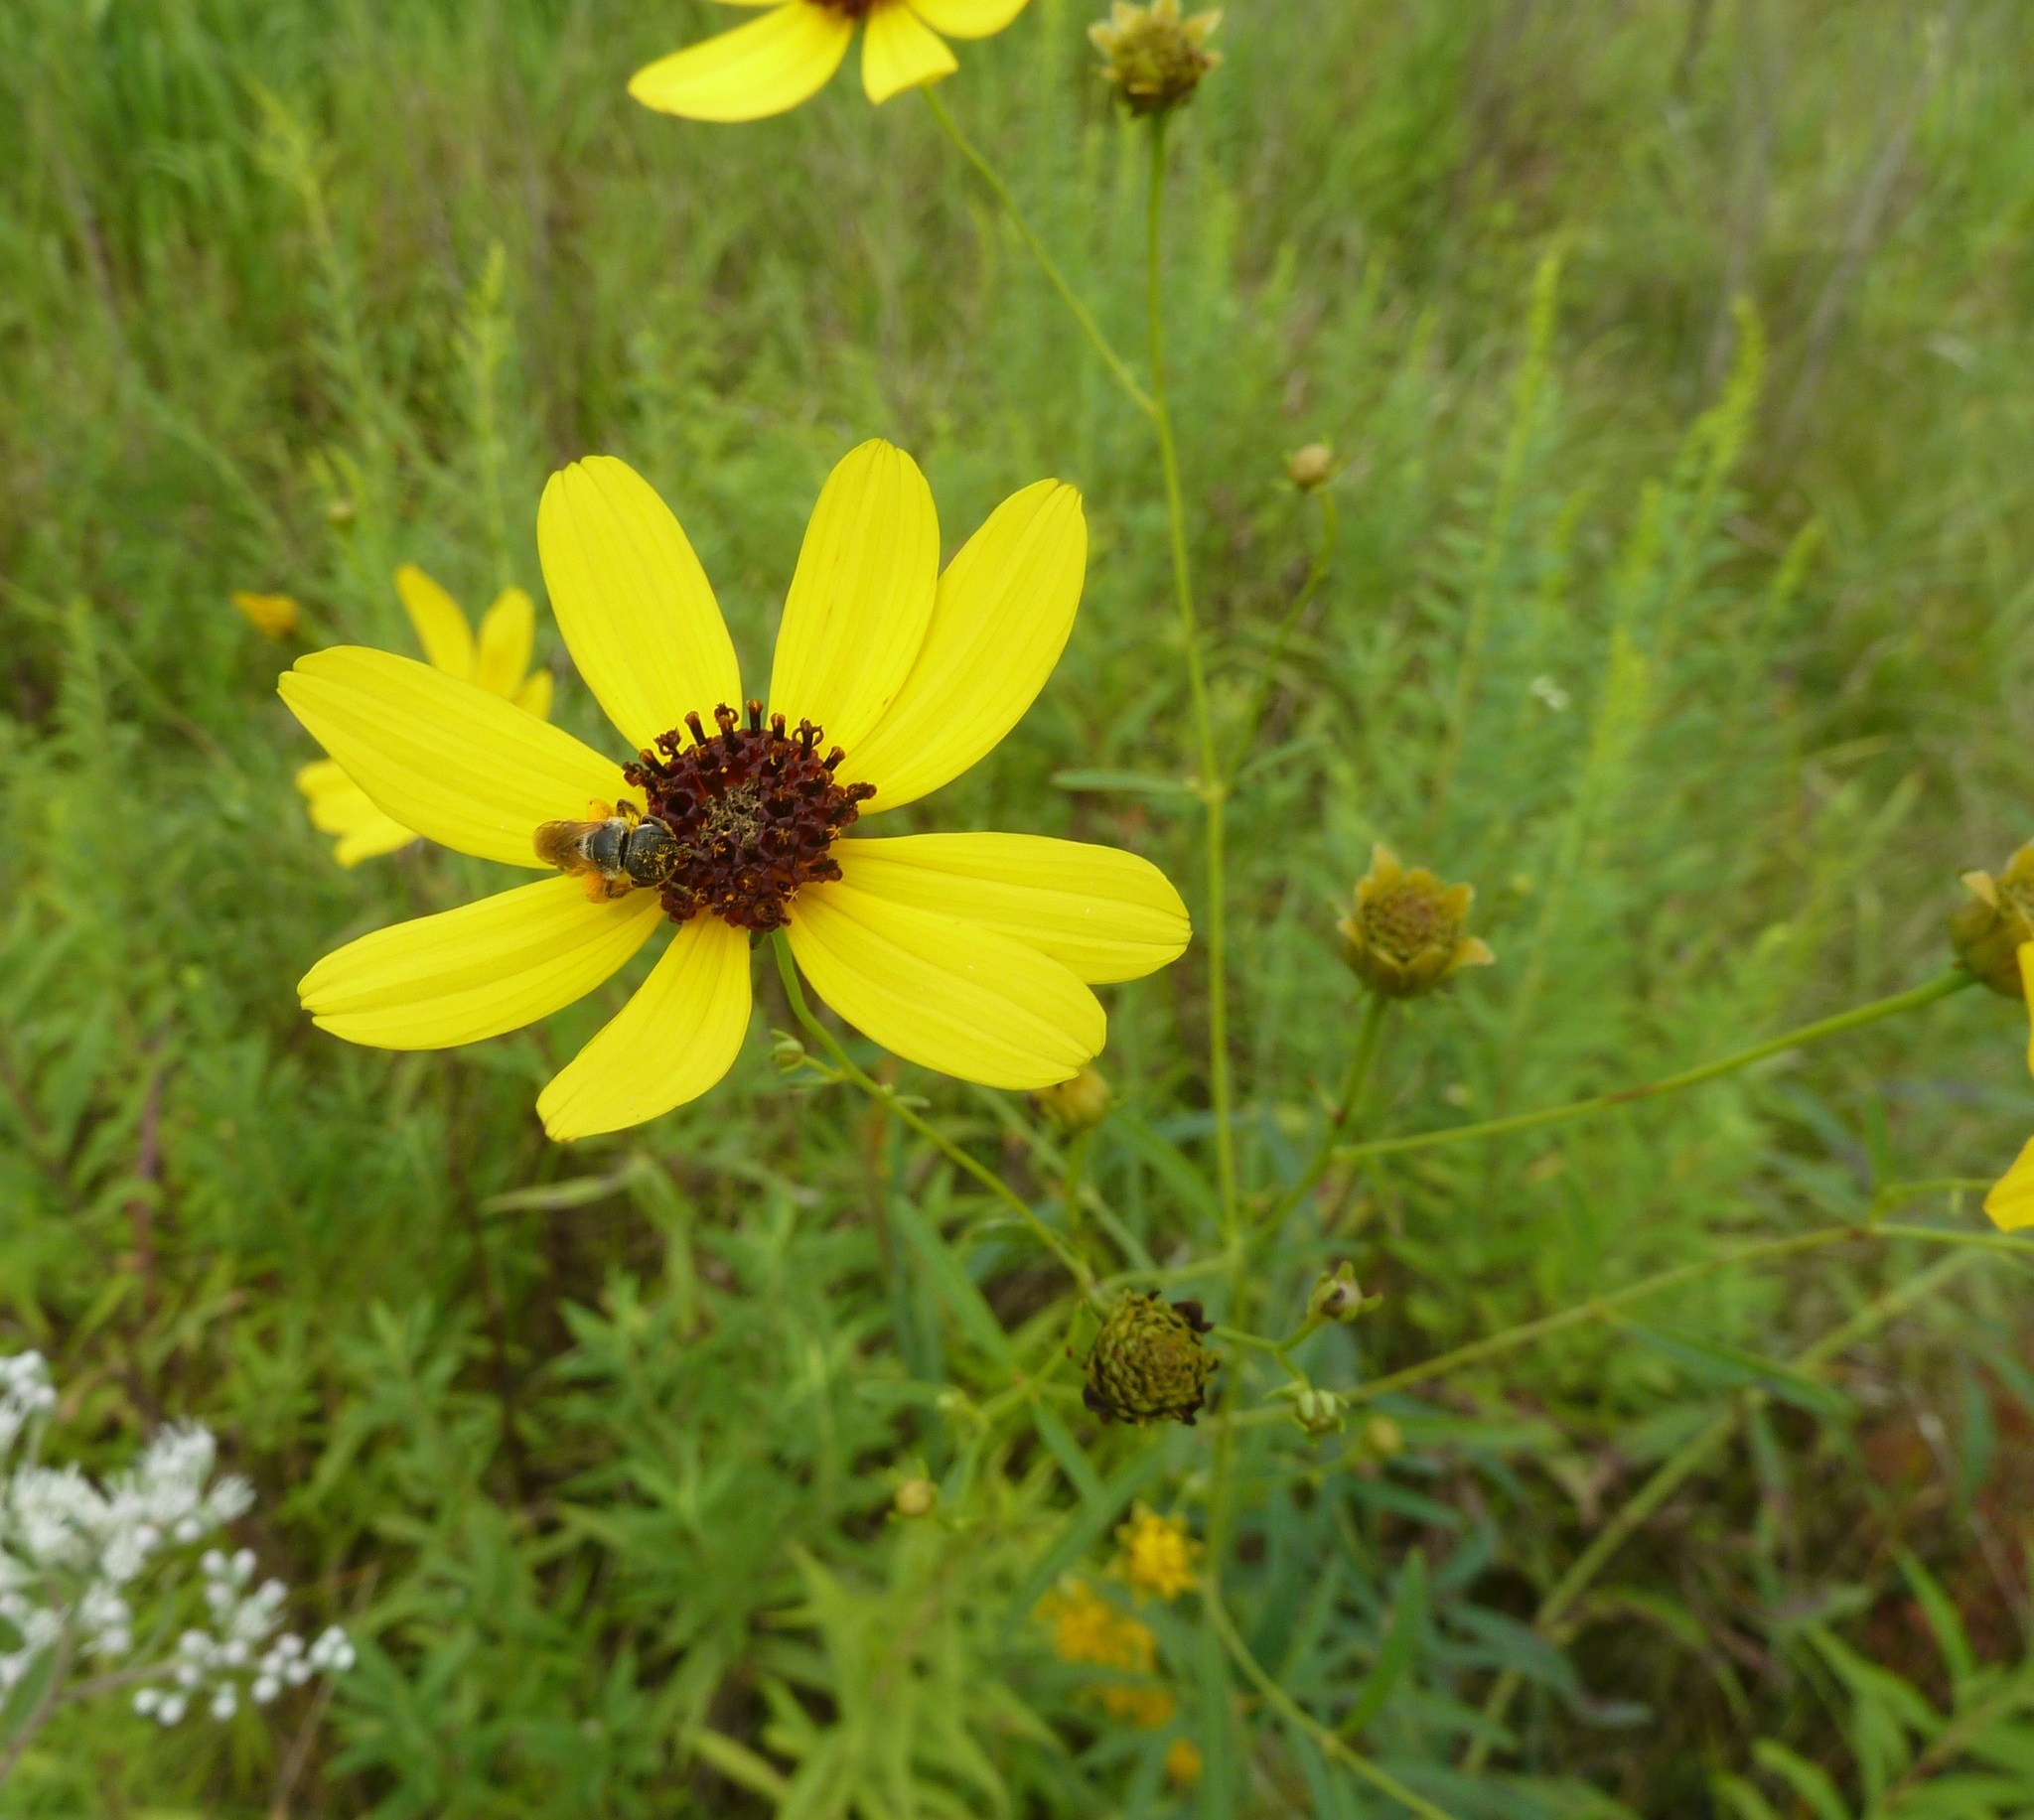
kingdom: Plantae
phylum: Tracheophyta
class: Magnoliopsida
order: Asterales
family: Asteraceae
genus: Coreopsis
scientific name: Coreopsis tripteris
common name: Tall coreopsis
